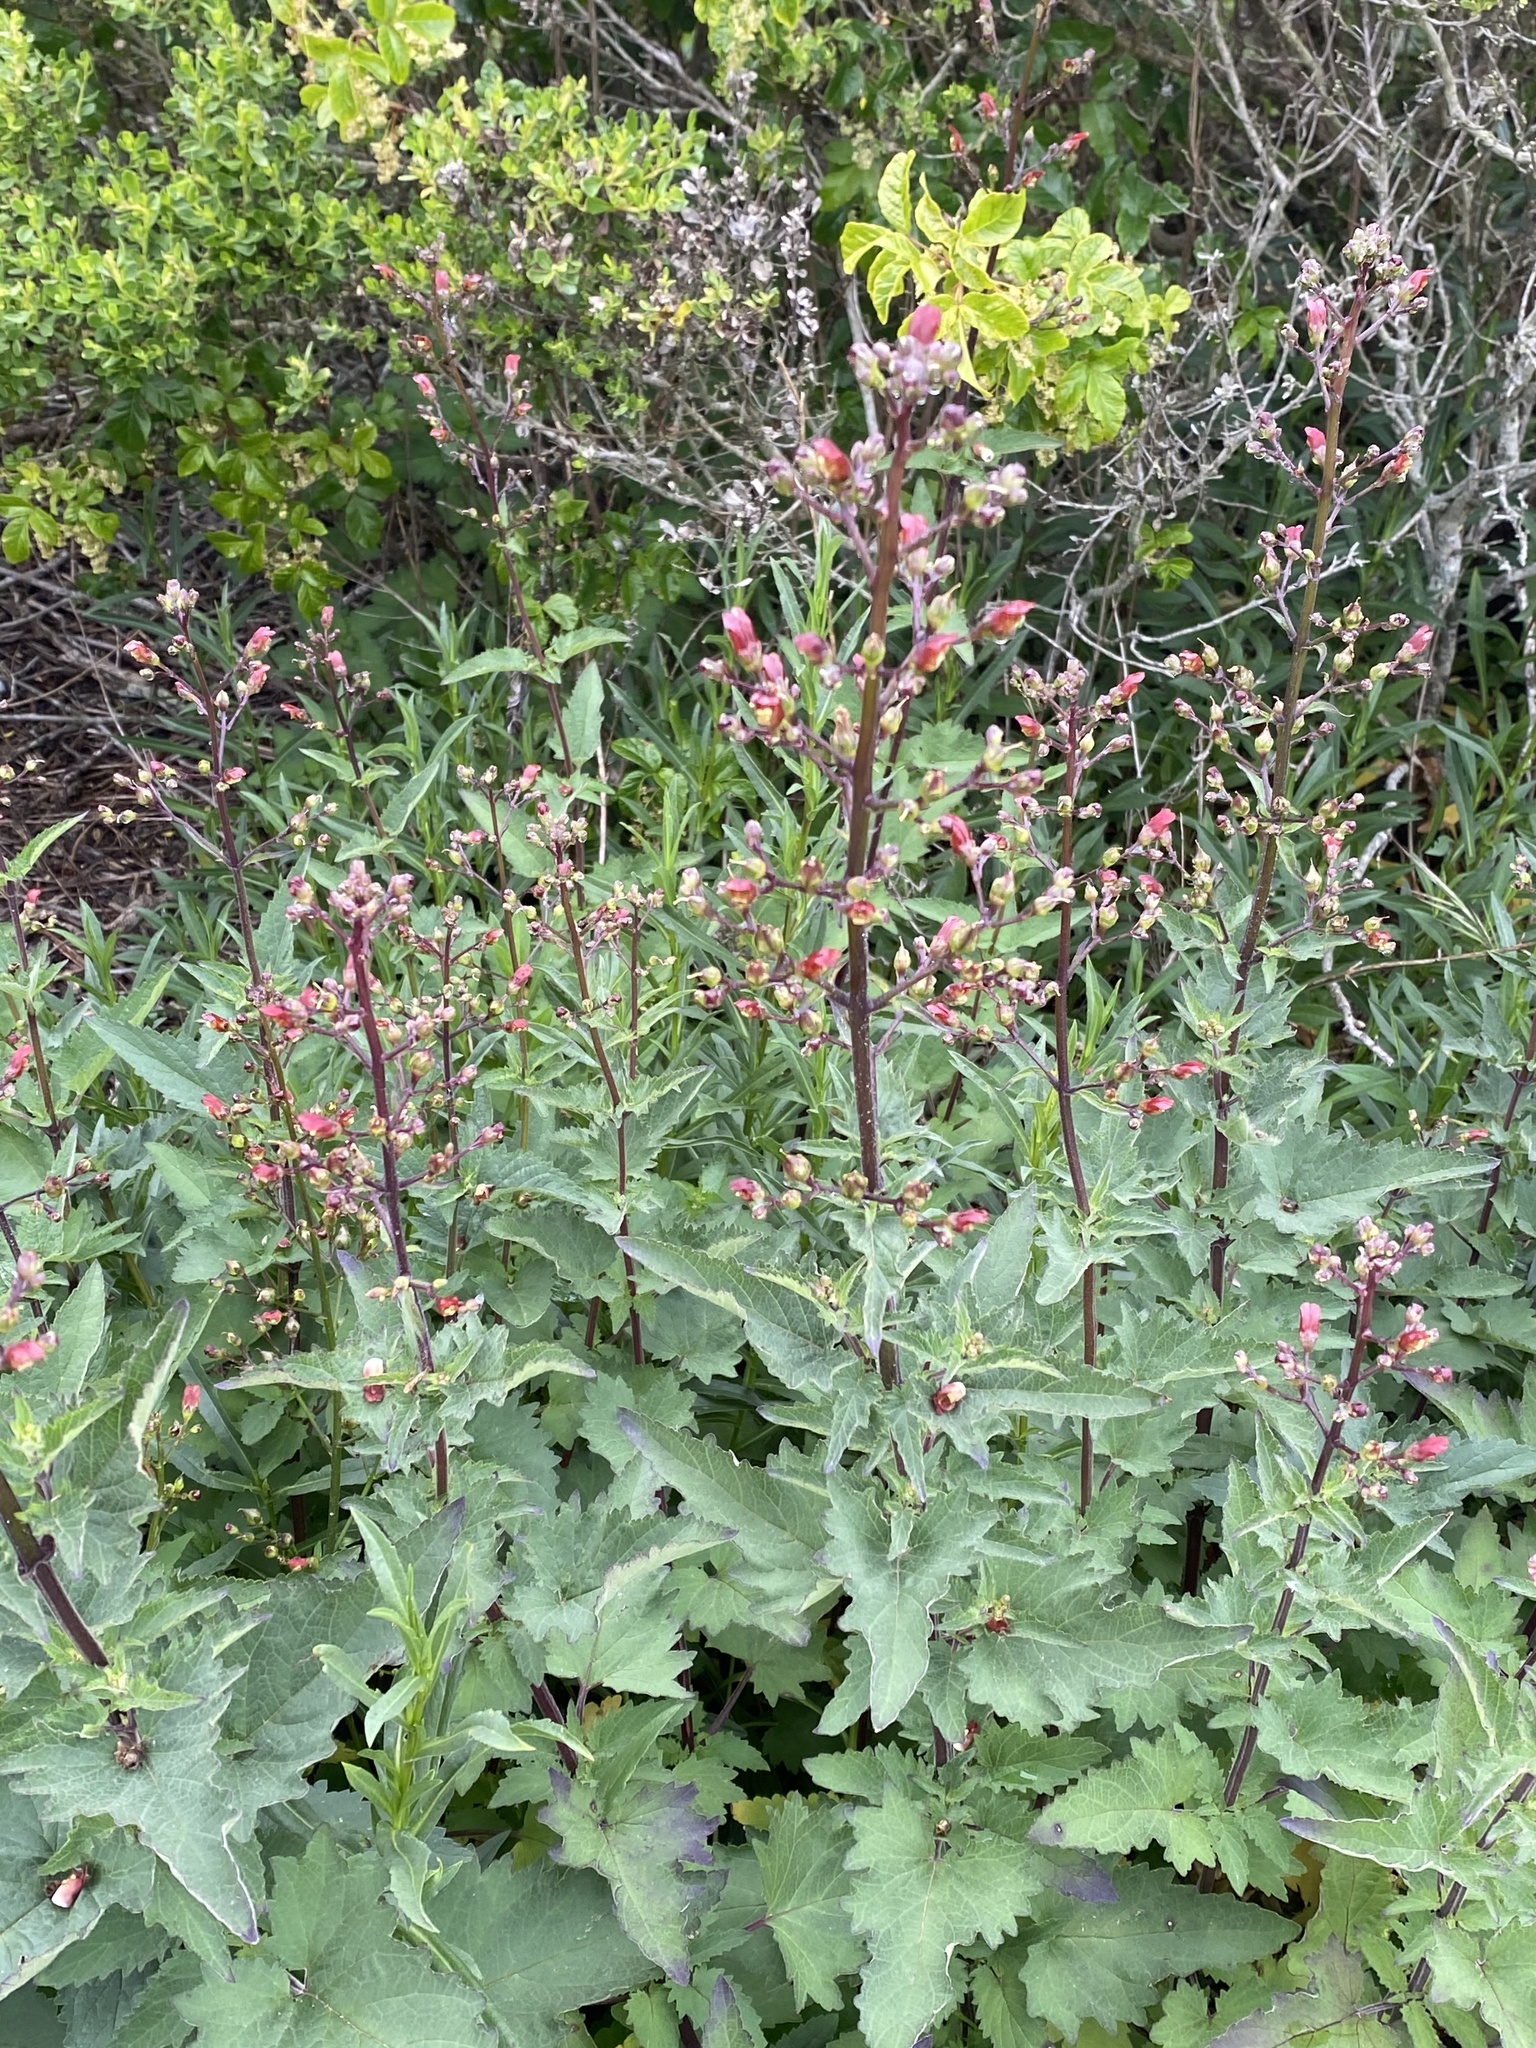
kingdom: Plantae
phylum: Tracheophyta
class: Magnoliopsida
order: Lamiales
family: Scrophulariaceae
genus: Scrophularia
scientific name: Scrophularia californica
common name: California figwort
